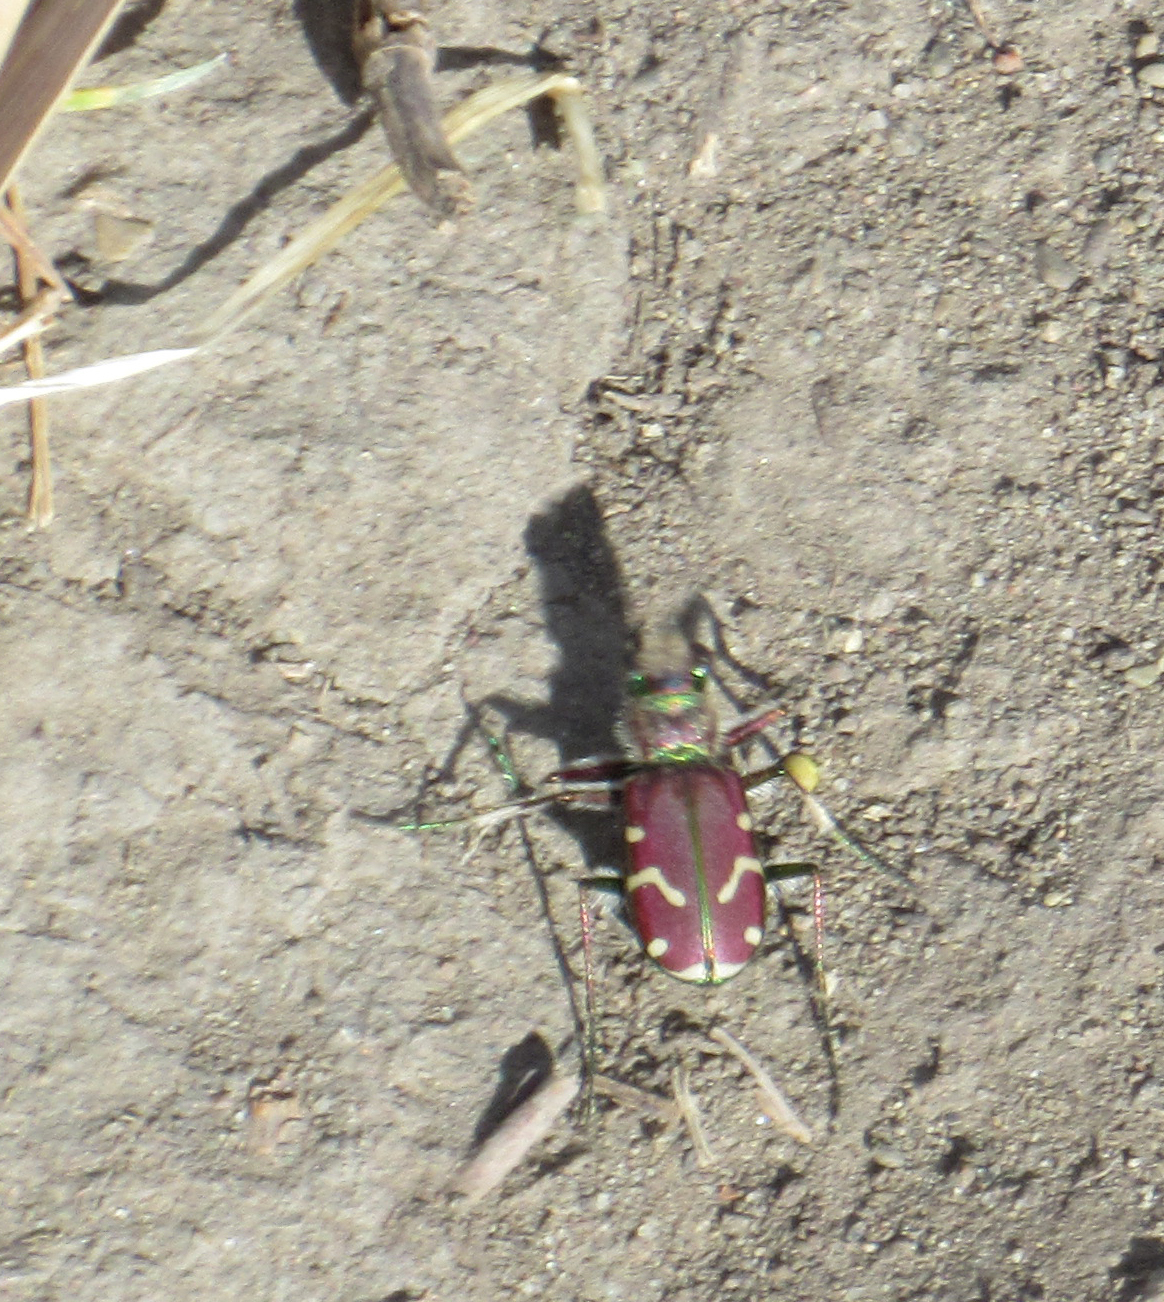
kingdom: Animalia
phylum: Arthropoda
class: Insecta
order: Coleoptera
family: Carabidae
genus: Cicindela
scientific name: Cicindela limbalis
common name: Common claybank tiger beetle
